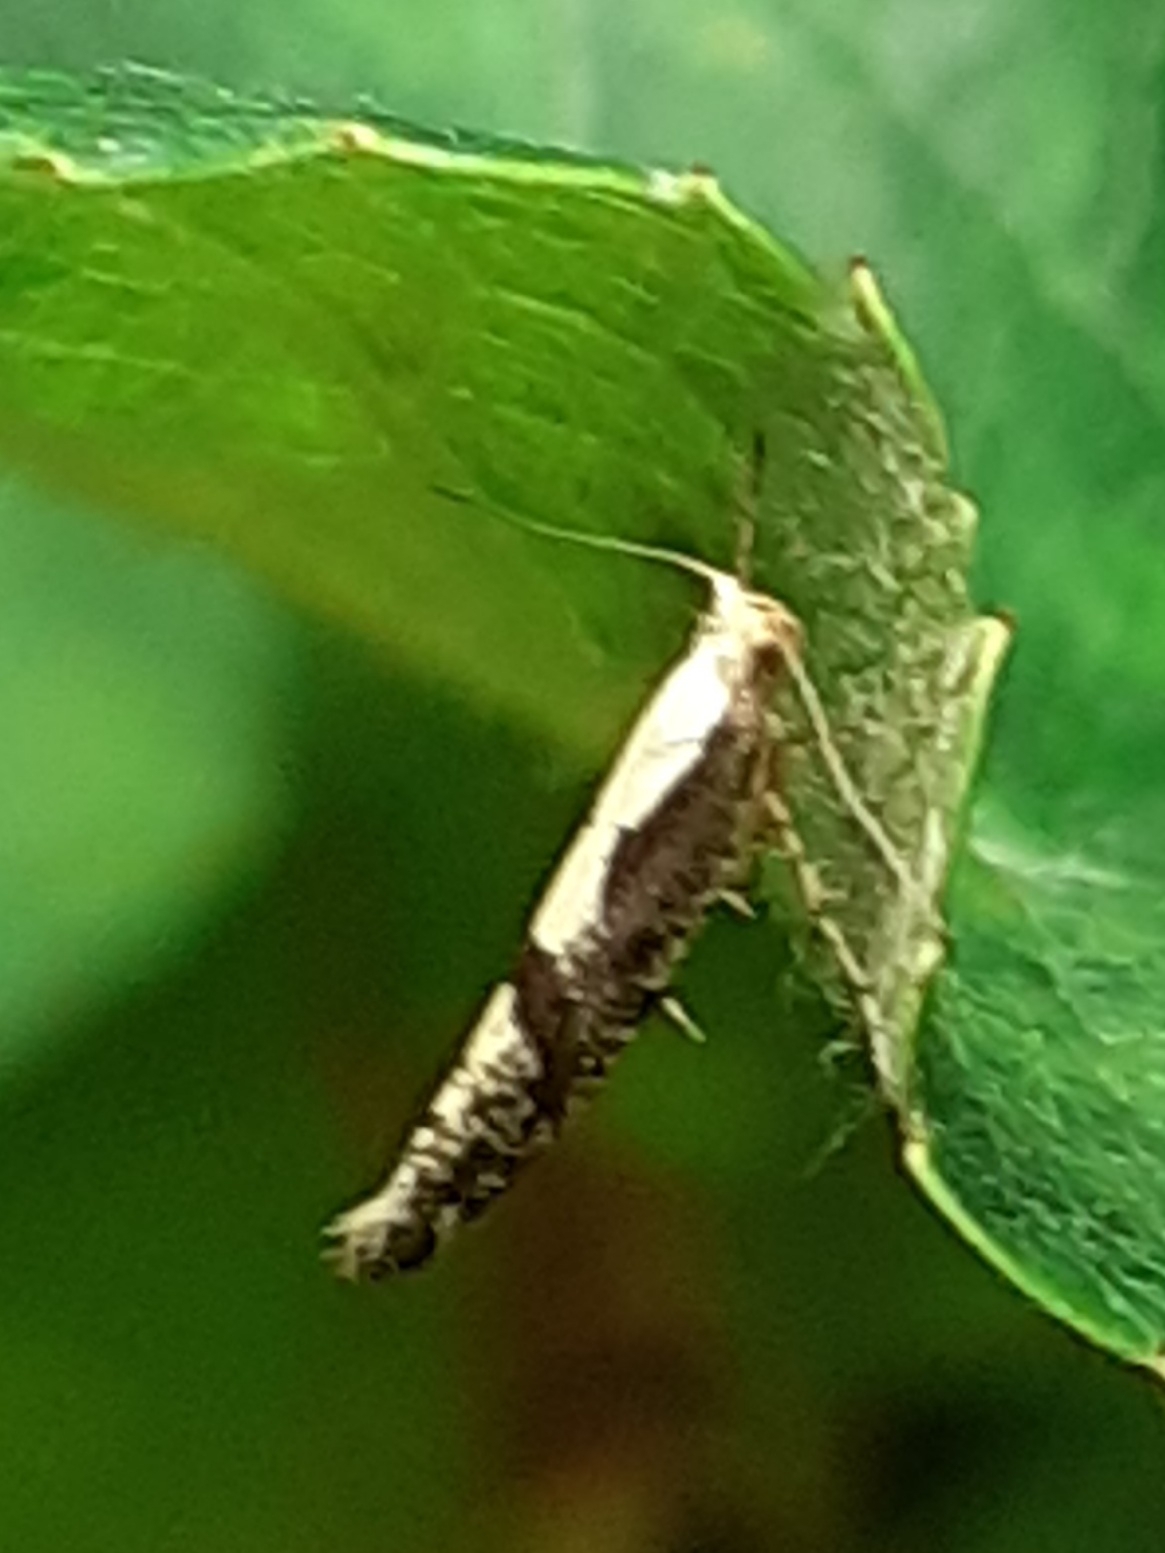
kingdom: Animalia
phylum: Arthropoda
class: Insecta
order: Lepidoptera
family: Argyresthiidae
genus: Argyresthia
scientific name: Argyresthia conjugella
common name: Apple fruit moth
